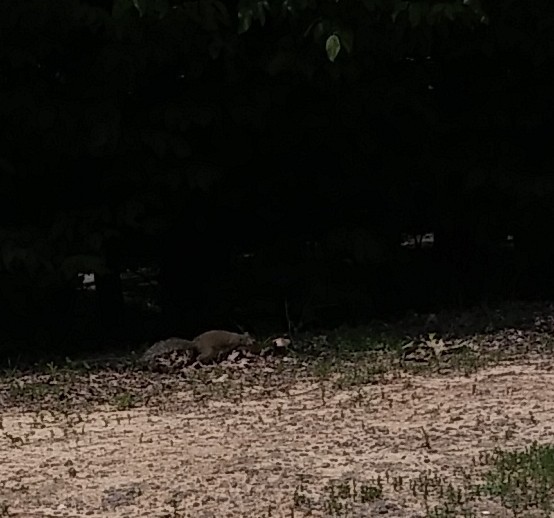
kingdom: Animalia
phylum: Chordata
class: Mammalia
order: Rodentia
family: Sciuridae
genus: Sciurus
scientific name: Sciurus carolinensis
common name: Eastern gray squirrel
